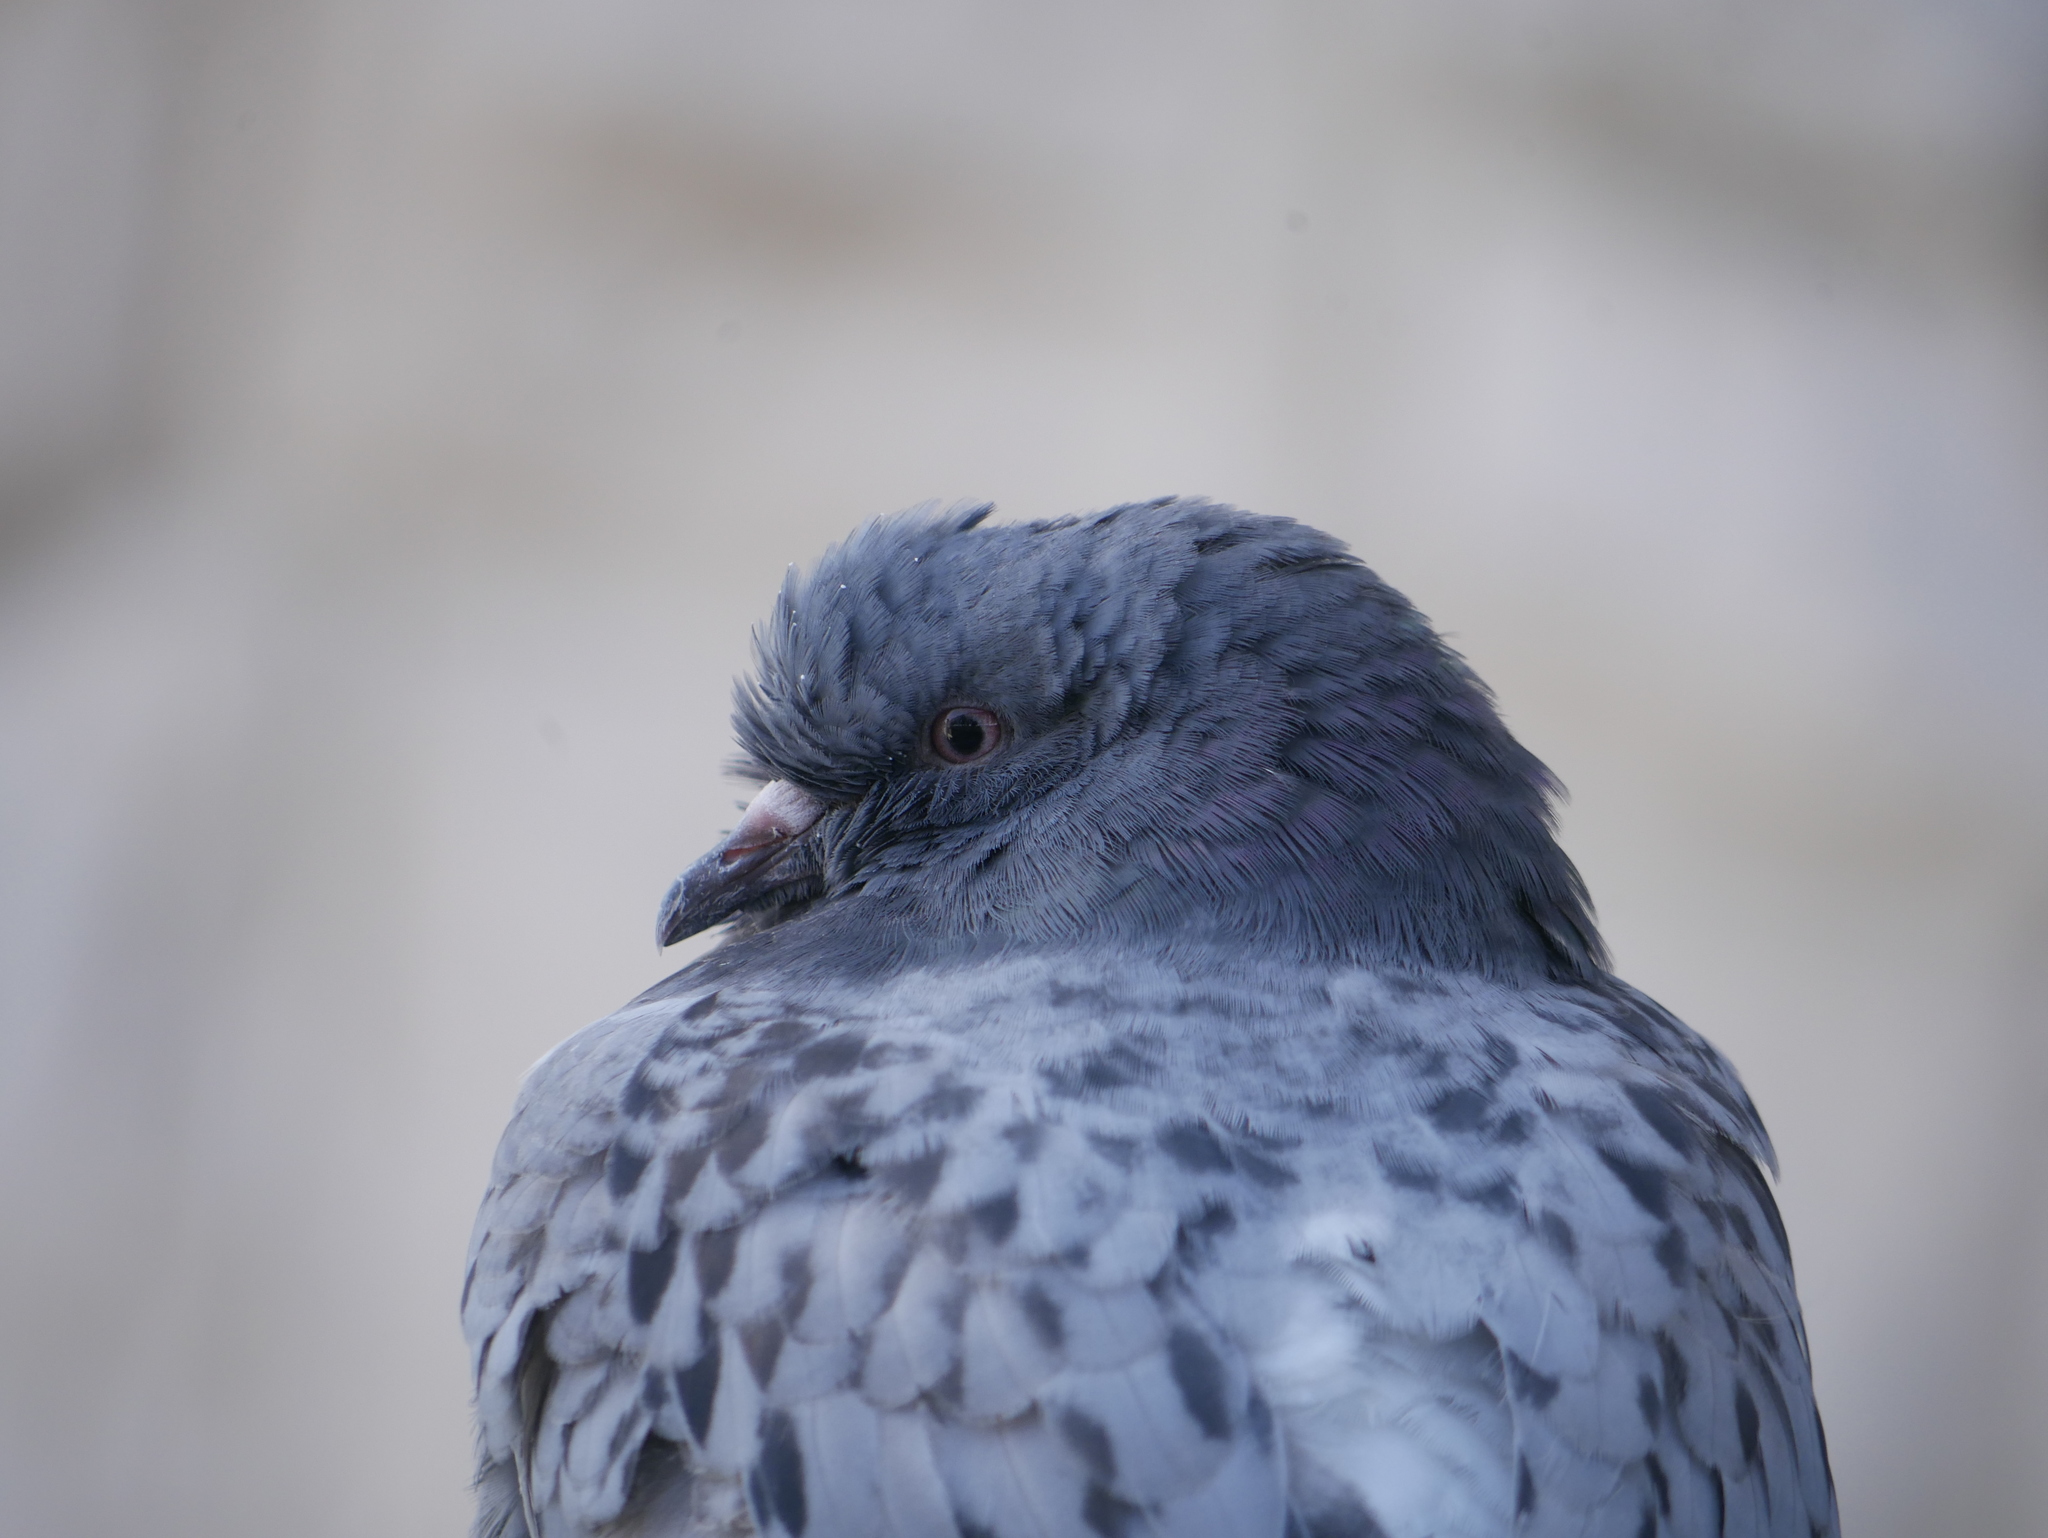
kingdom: Animalia
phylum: Chordata
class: Aves
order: Columbiformes
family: Columbidae
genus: Columba
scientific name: Columba livia
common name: Rock pigeon
